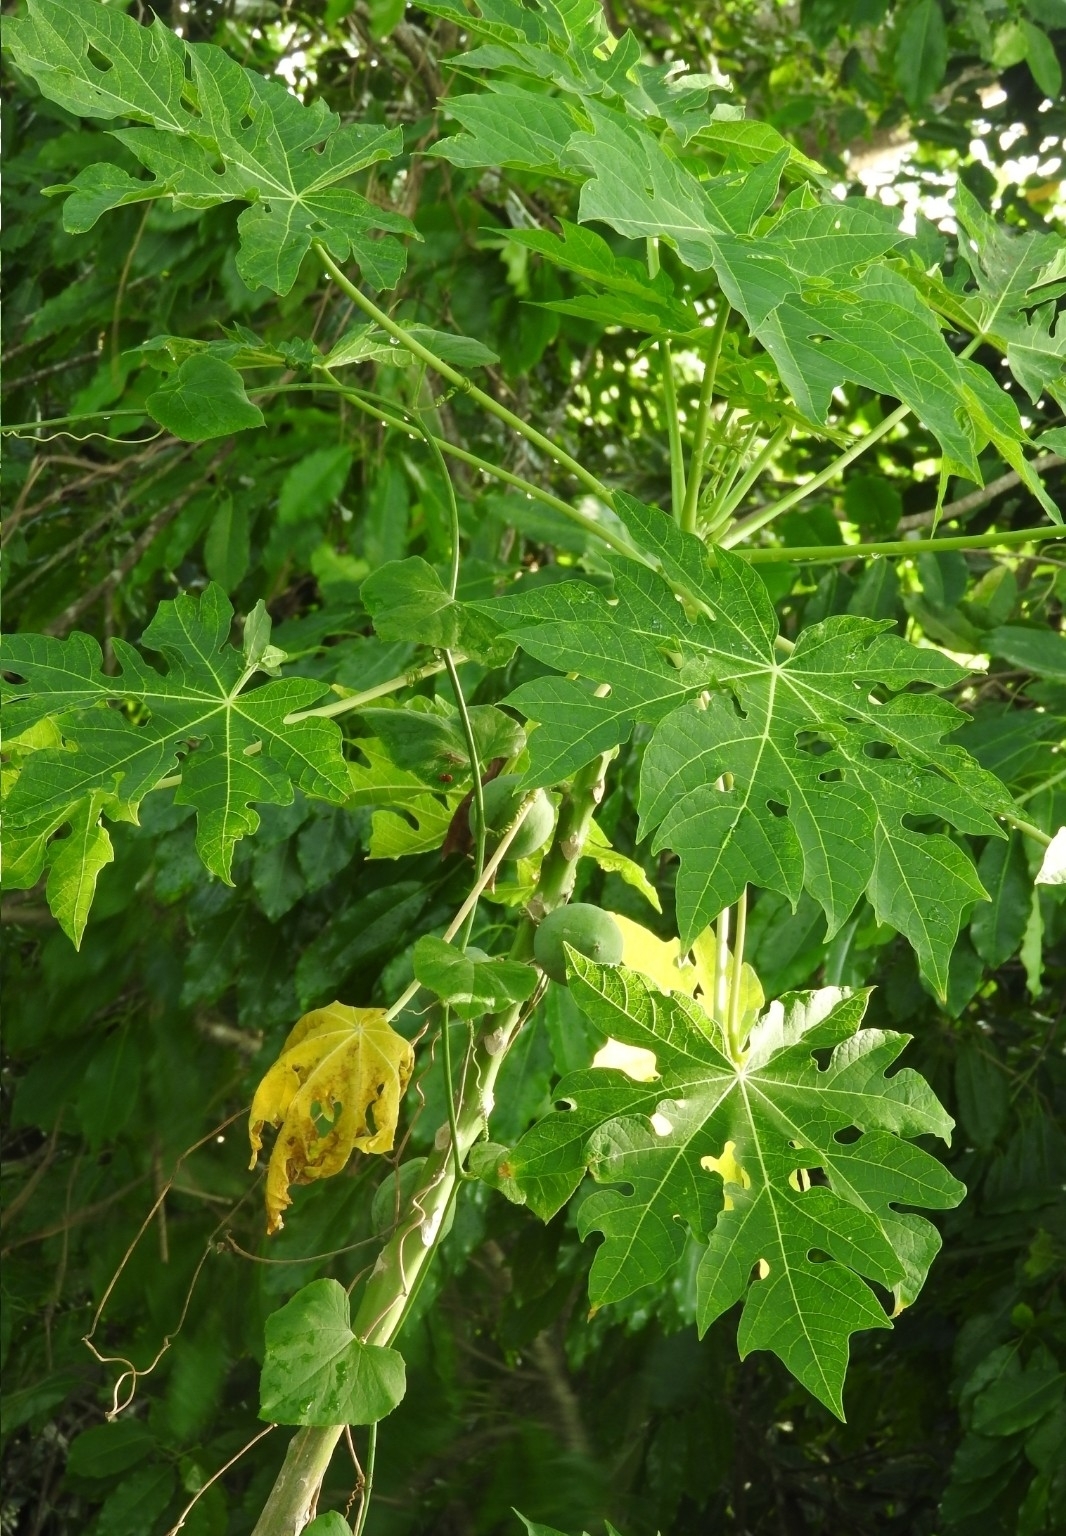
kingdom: Plantae
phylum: Tracheophyta
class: Magnoliopsida
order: Brassicales
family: Caricaceae
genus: Carica
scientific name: Carica papaya
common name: Papaya
